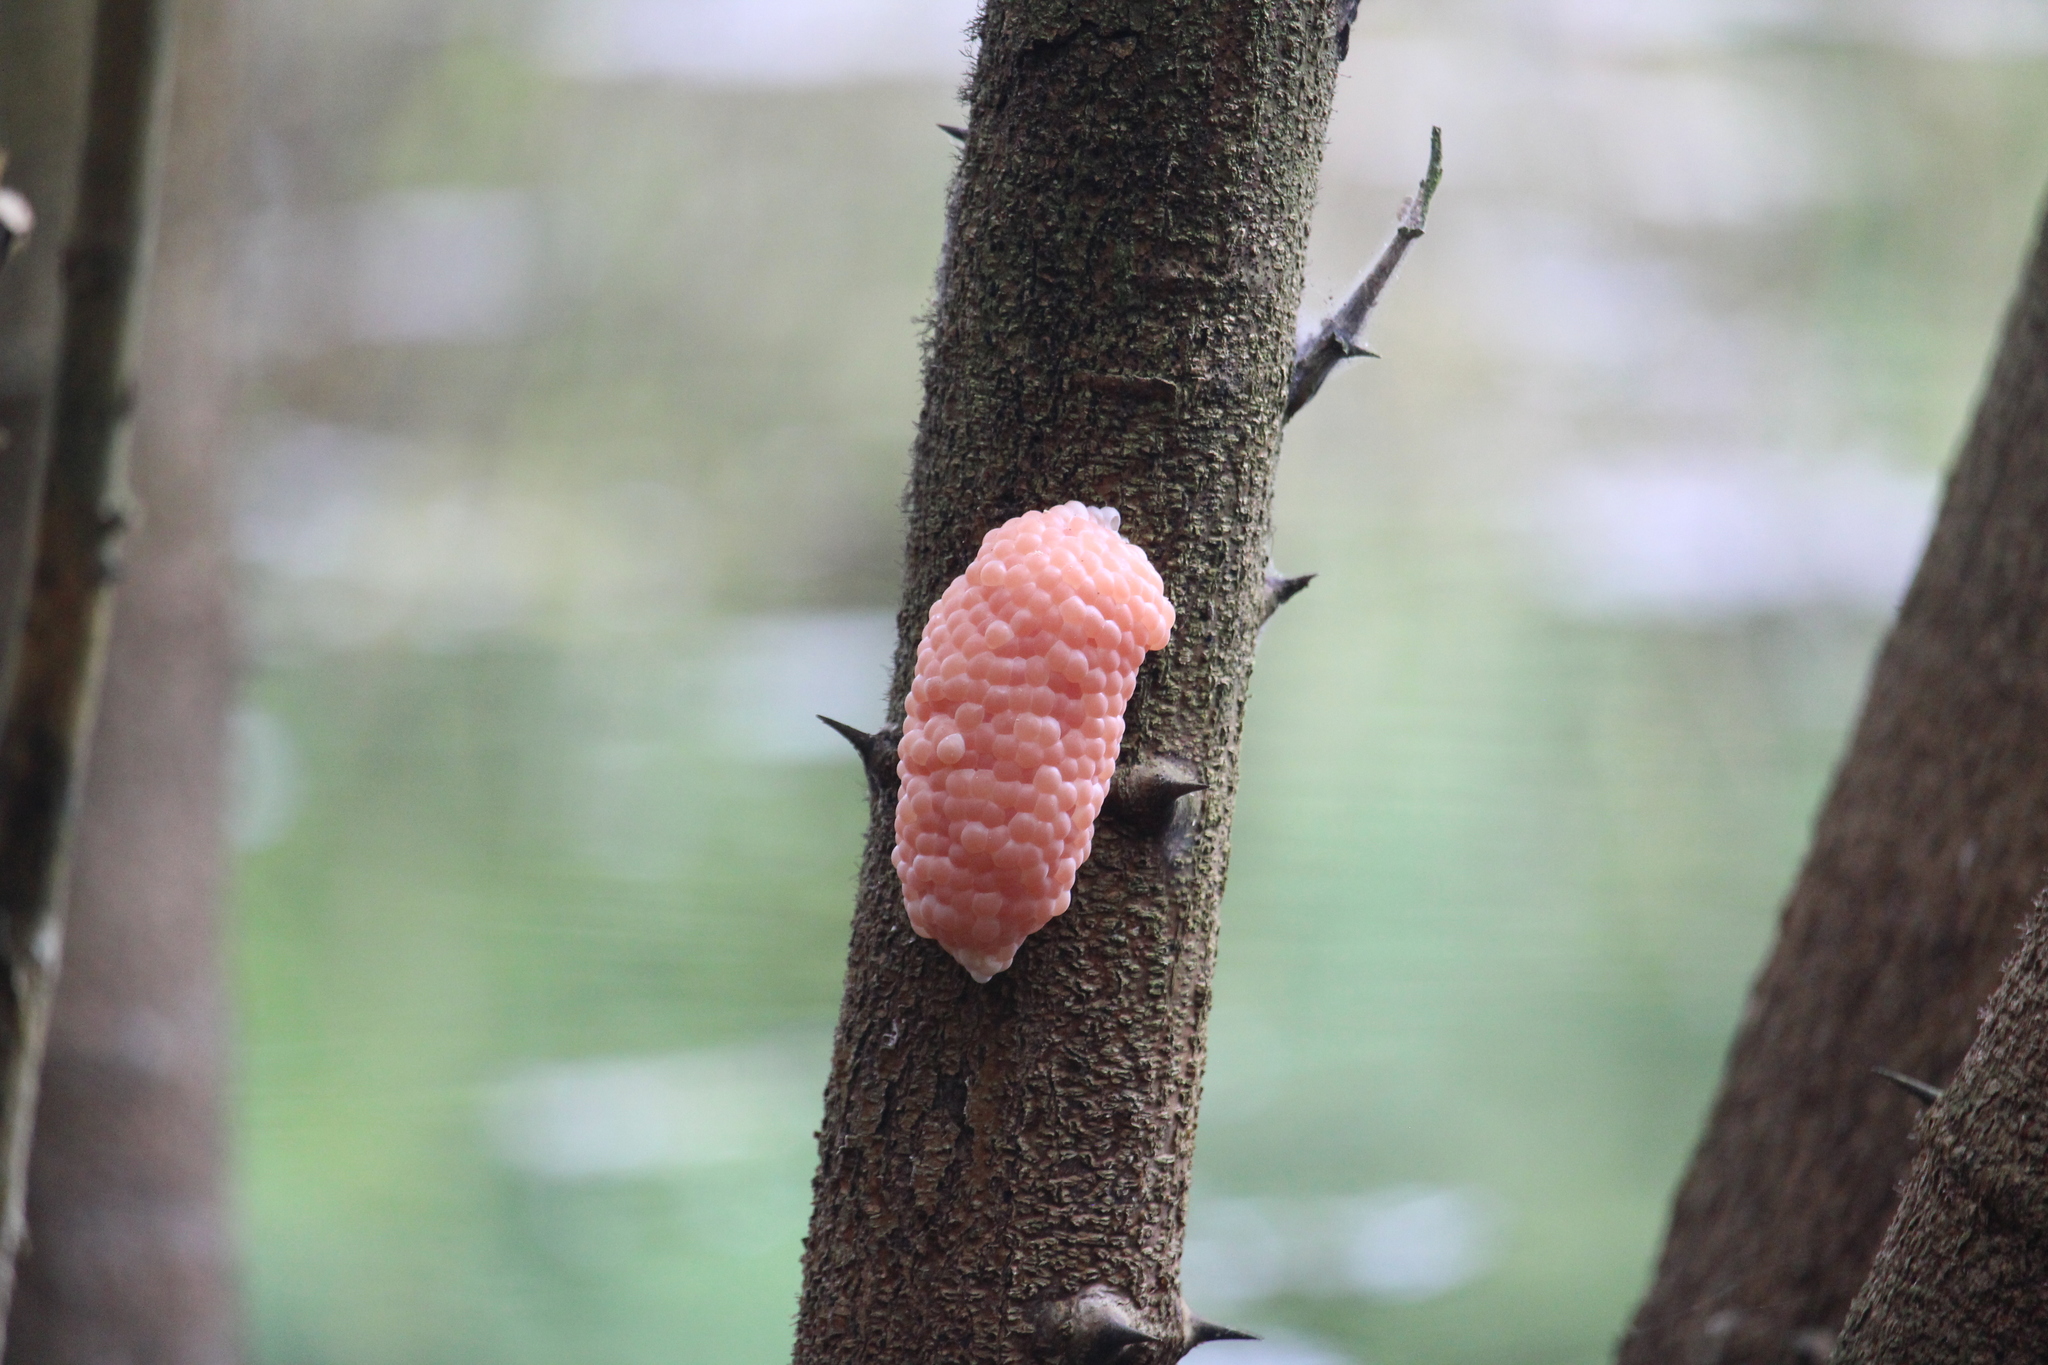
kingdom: Animalia
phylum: Mollusca
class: Gastropoda
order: Architaenioglossa
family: Ampullariidae
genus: Pomacea
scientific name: Pomacea canaliculata
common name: Channeled applesnail
